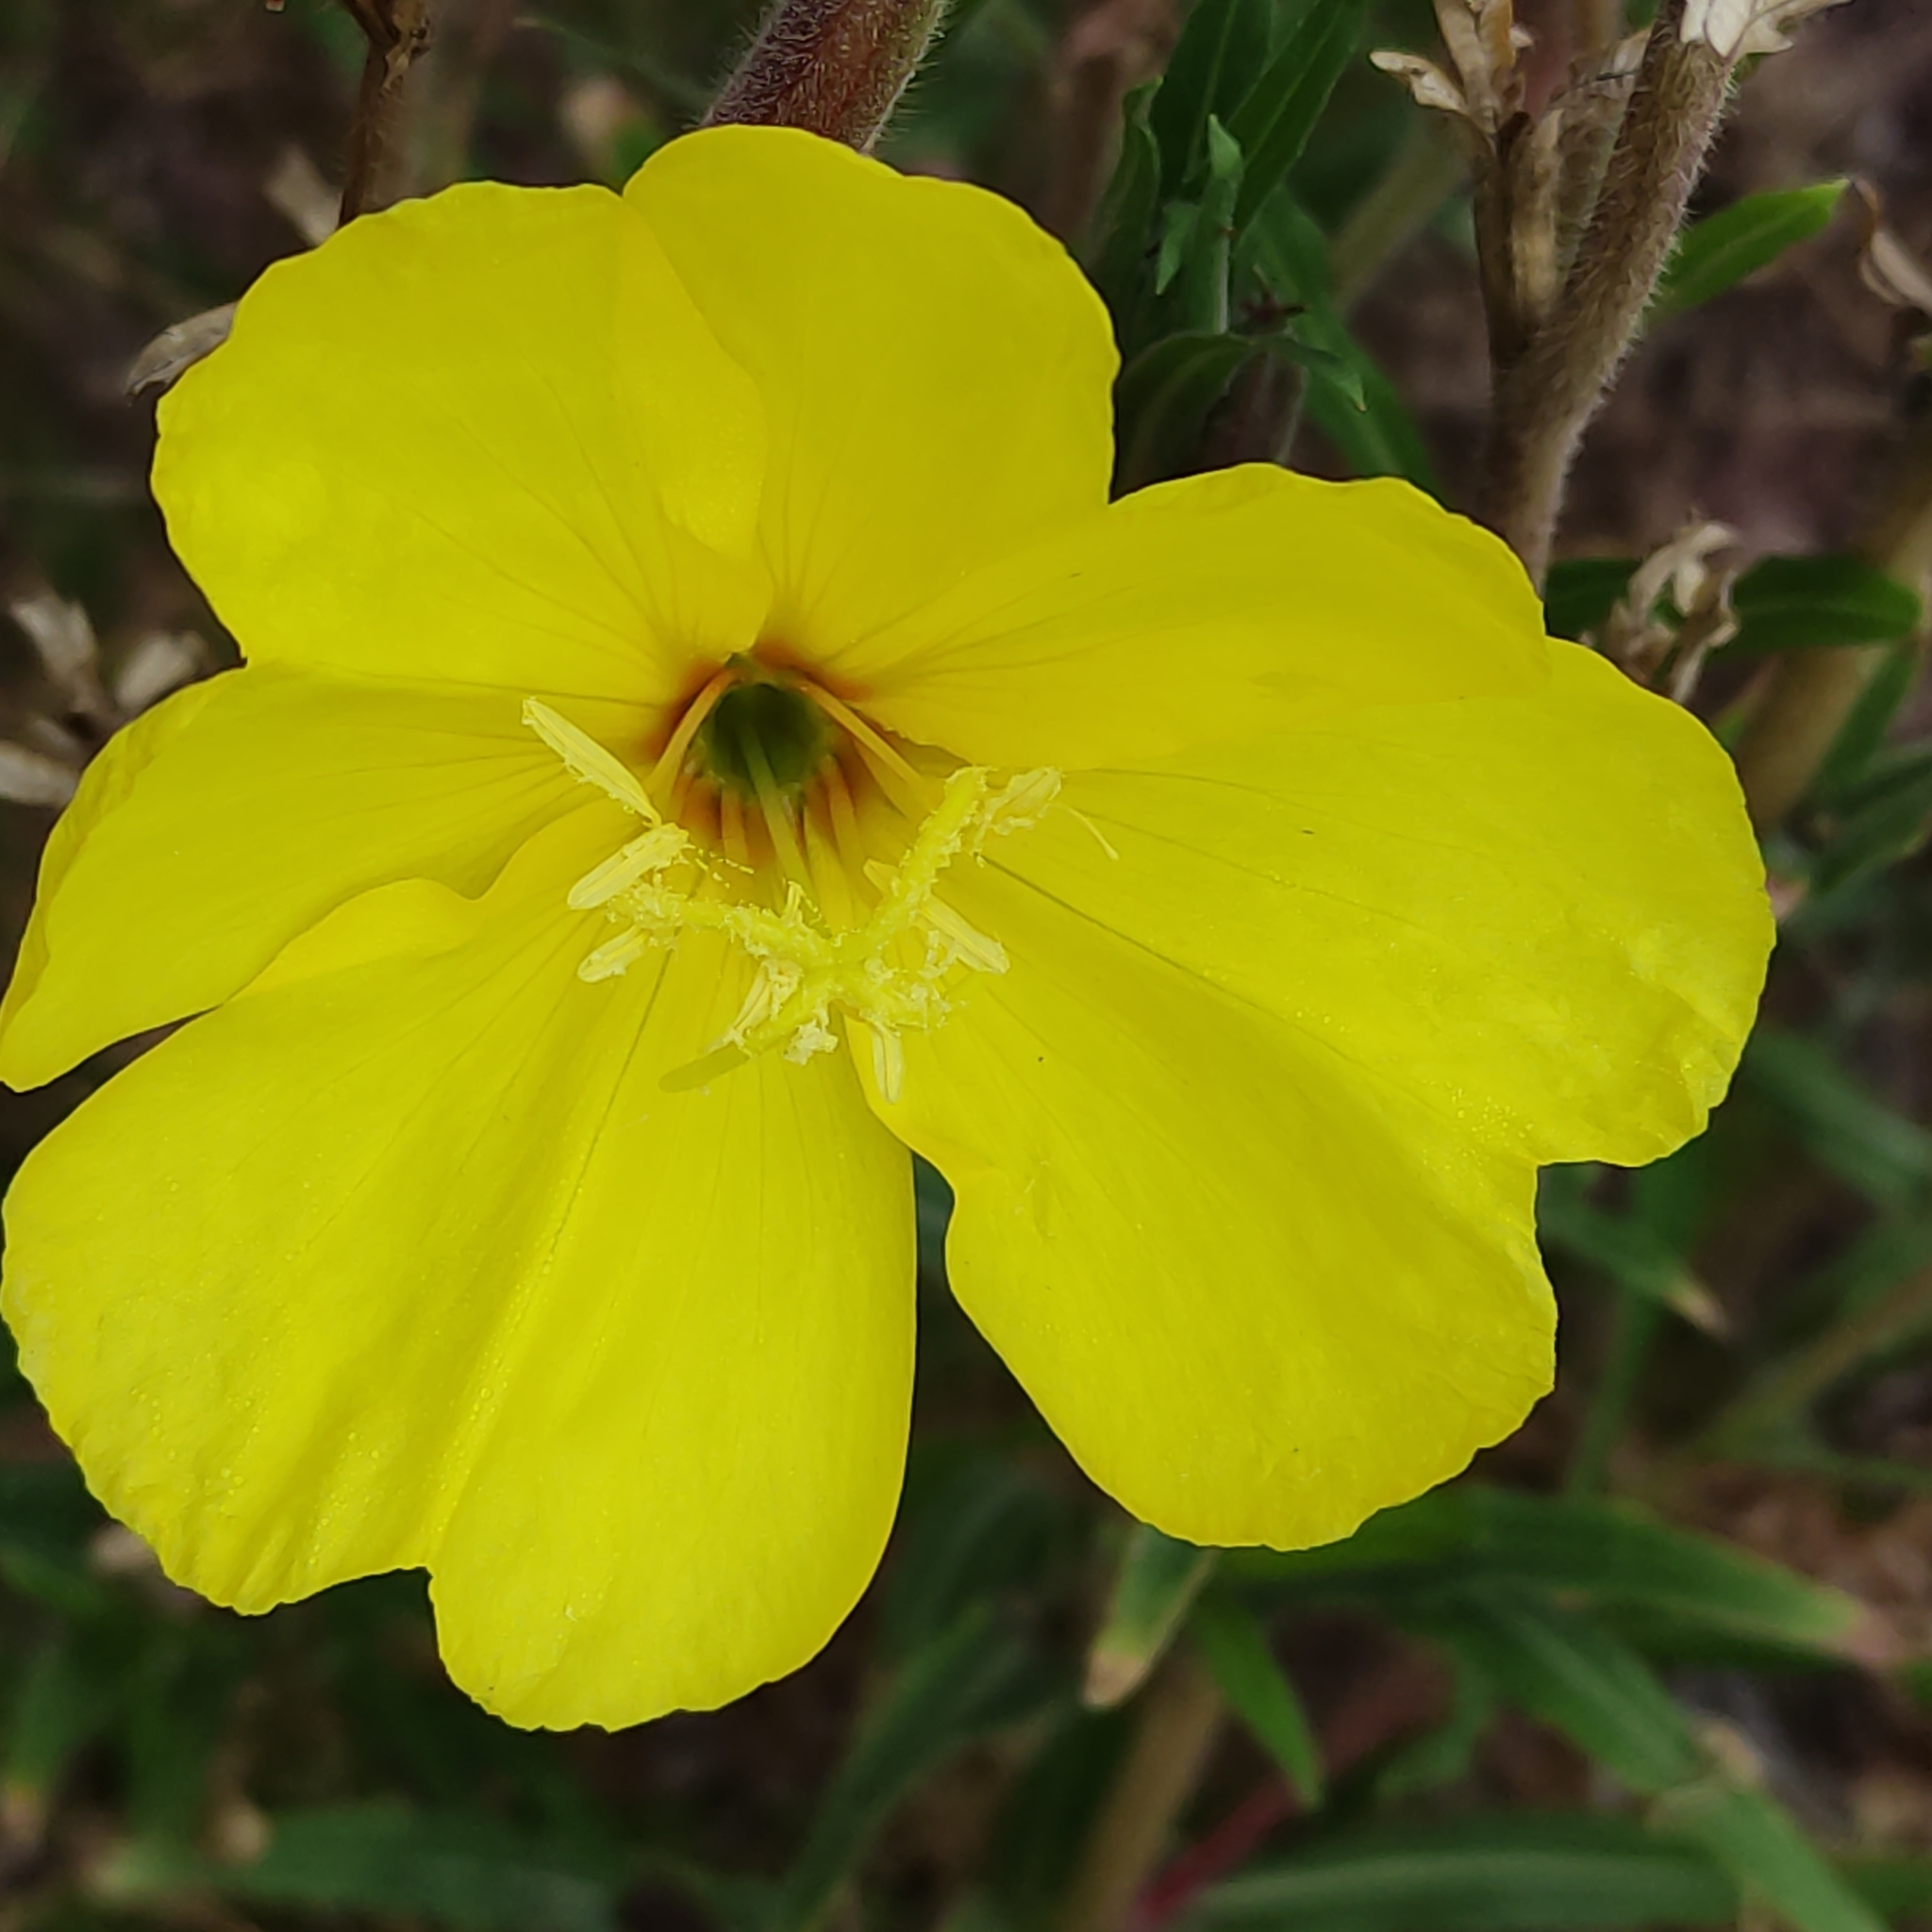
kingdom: Plantae
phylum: Tracheophyta
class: Magnoliopsida
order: Myrtales
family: Onagraceae
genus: Oenothera
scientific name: Oenothera stricta
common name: Fragrant evening-primrose
